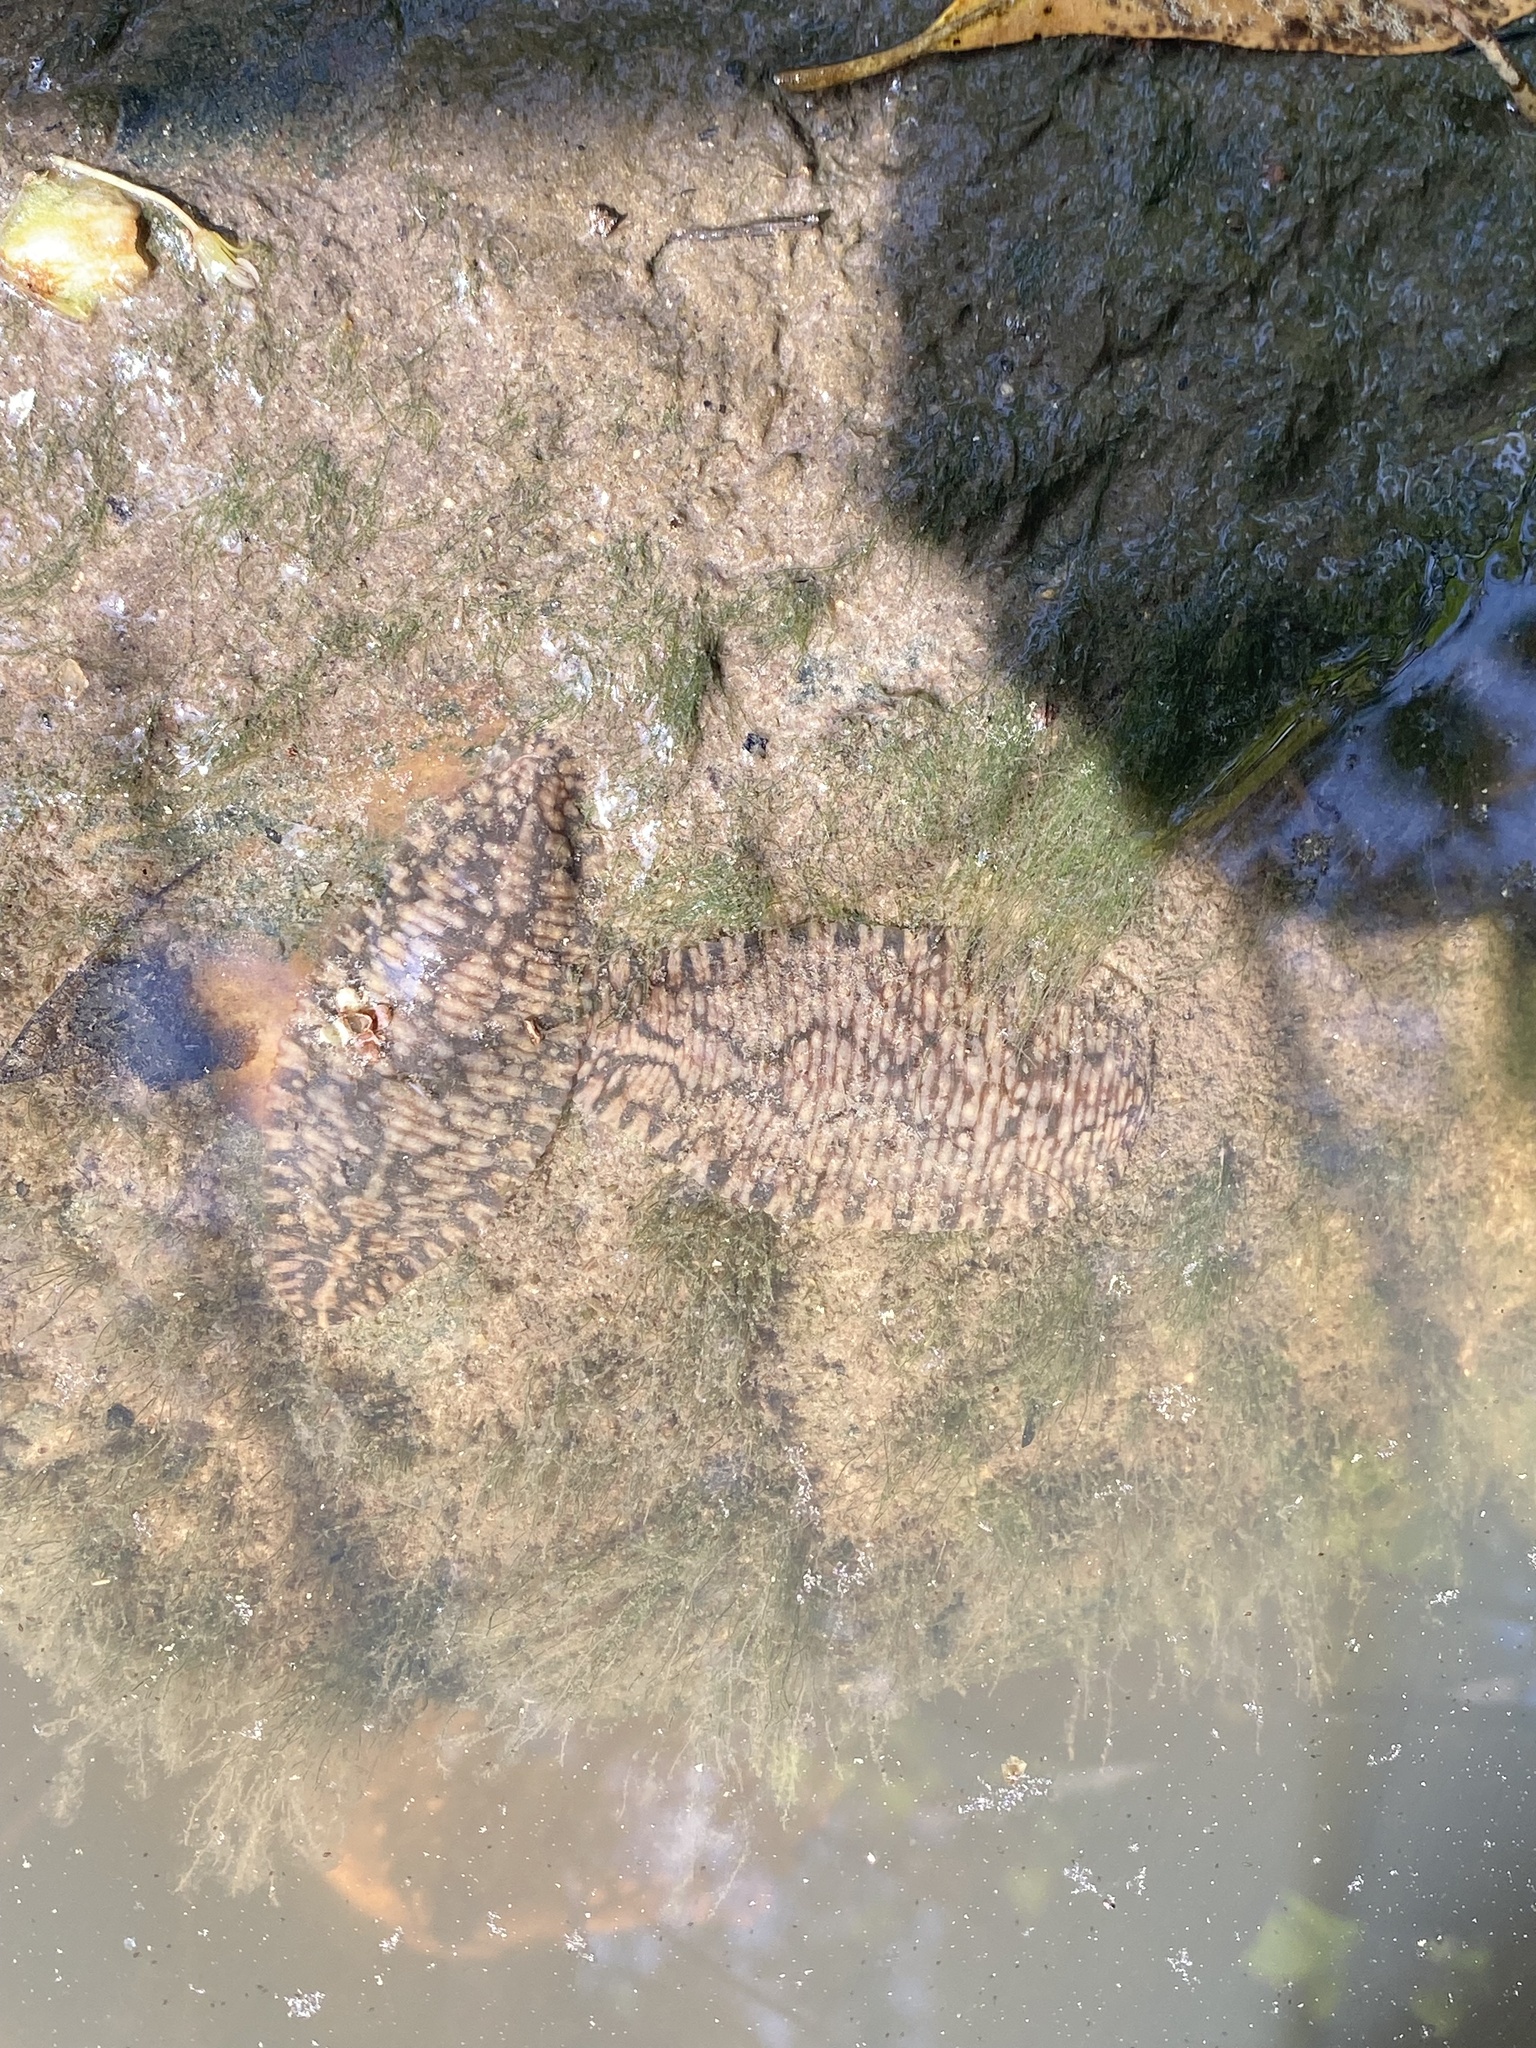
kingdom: Animalia
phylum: Annelida
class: Clitellata
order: Rhynchobdellida
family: Glossiphoniidae
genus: Placobdella
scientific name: Placobdella parasitica
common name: Smooth turtle leech
